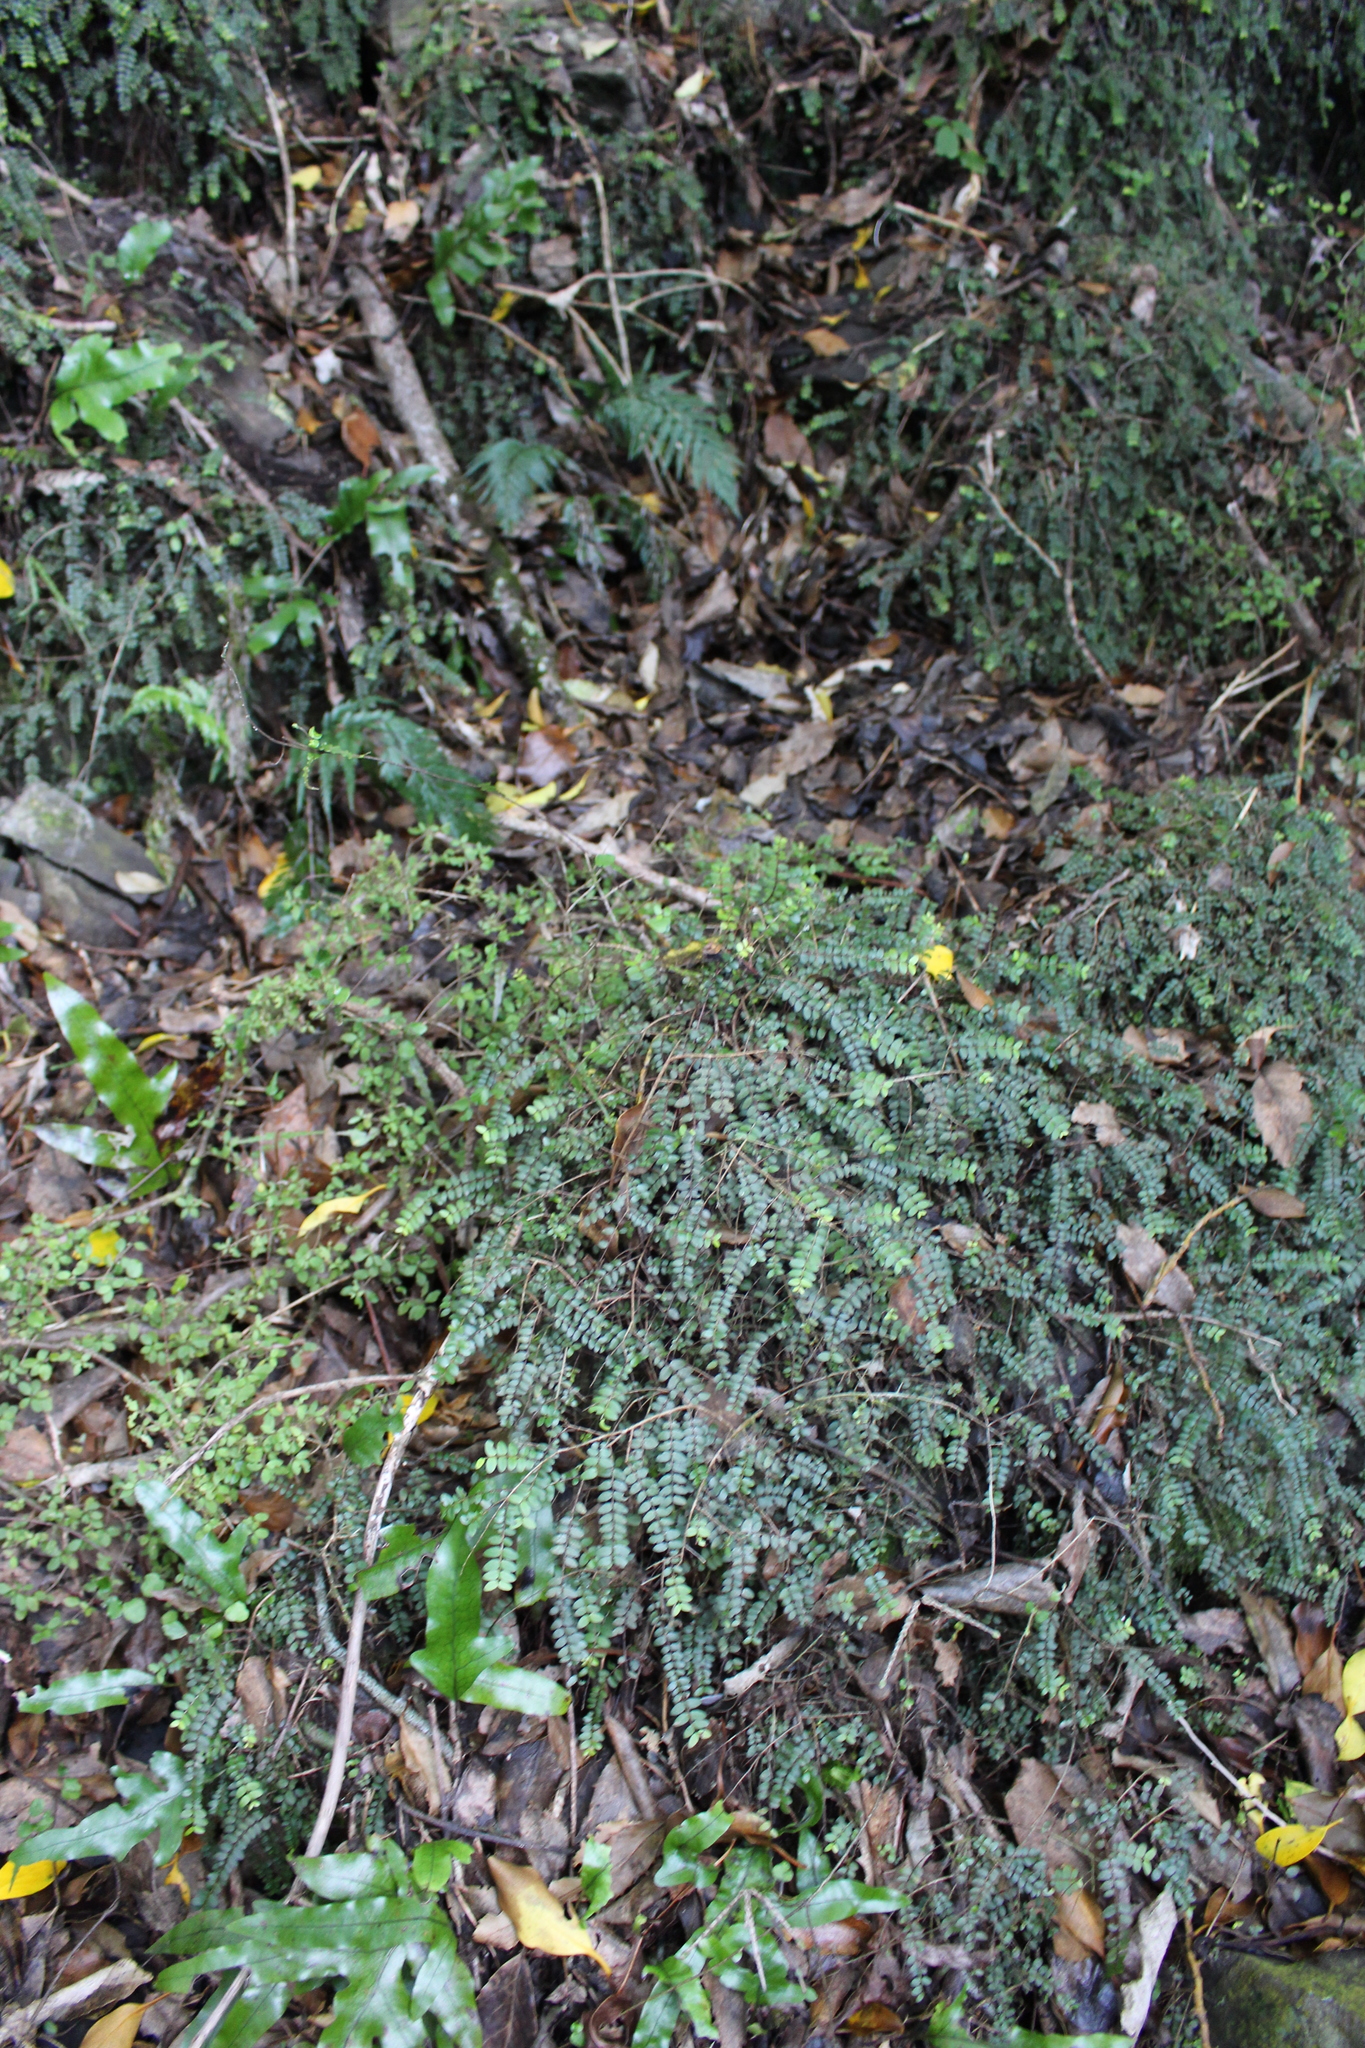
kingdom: Plantae
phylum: Tracheophyta
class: Magnoliopsida
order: Myrtales
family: Myrtaceae
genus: Metrosideros
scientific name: Metrosideros diffusa
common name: Small ratavine
